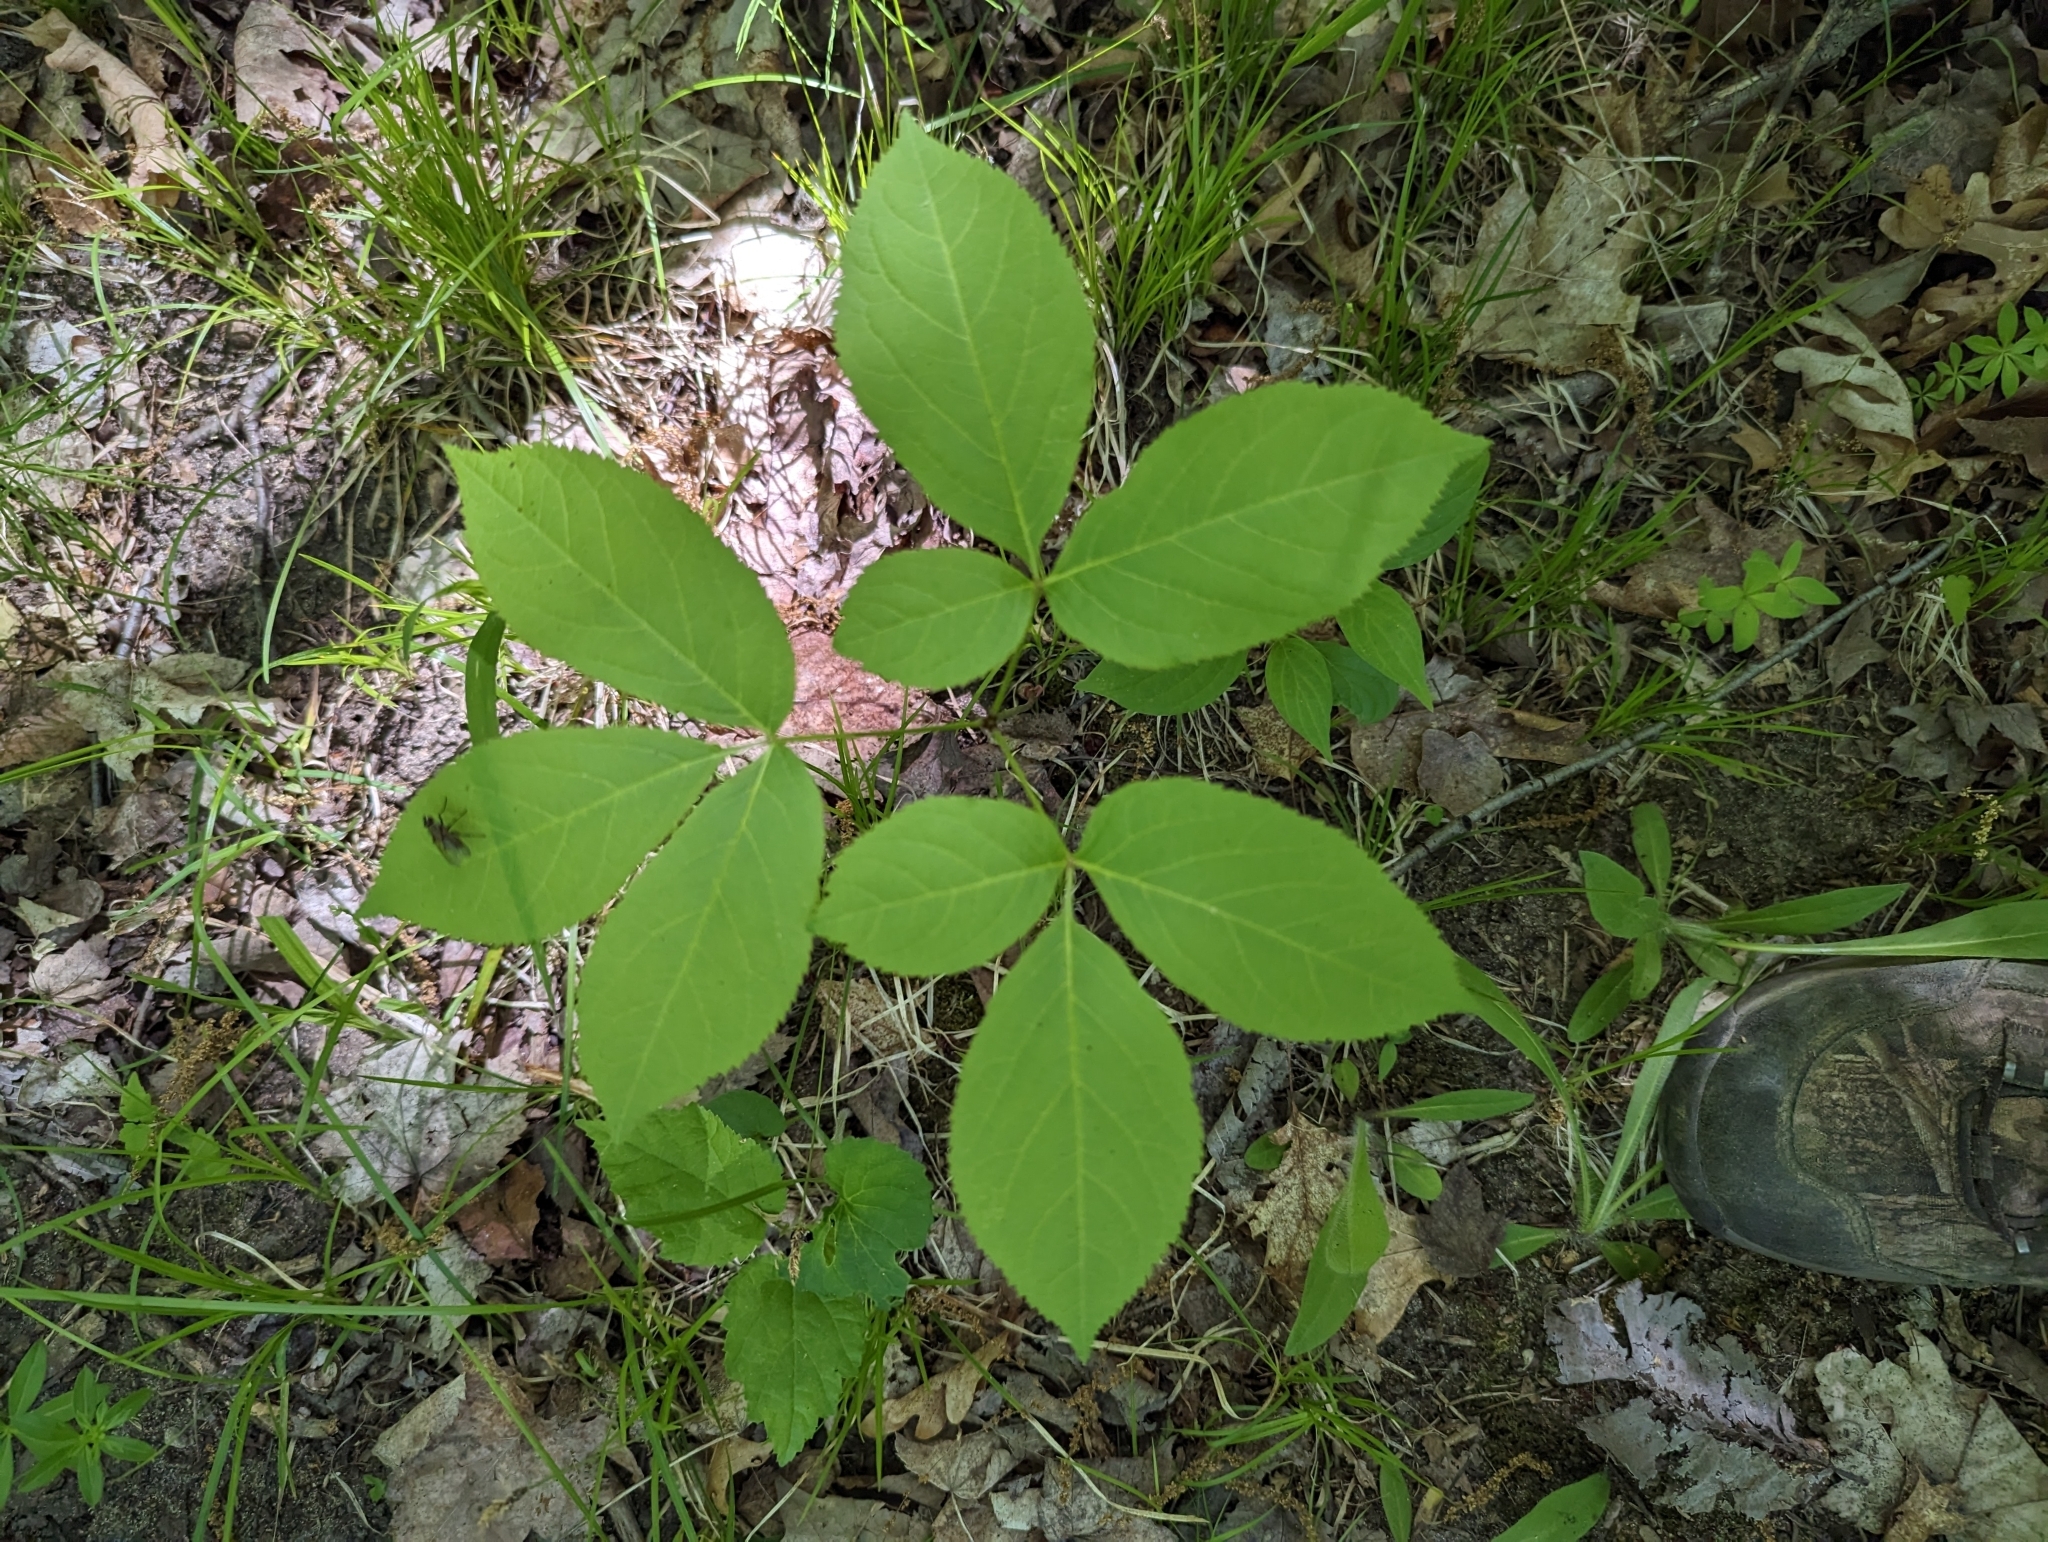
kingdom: Plantae
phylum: Tracheophyta
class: Magnoliopsida
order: Apiales
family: Araliaceae
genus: Aralia
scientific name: Aralia nudicaulis
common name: Wild sarsaparilla
